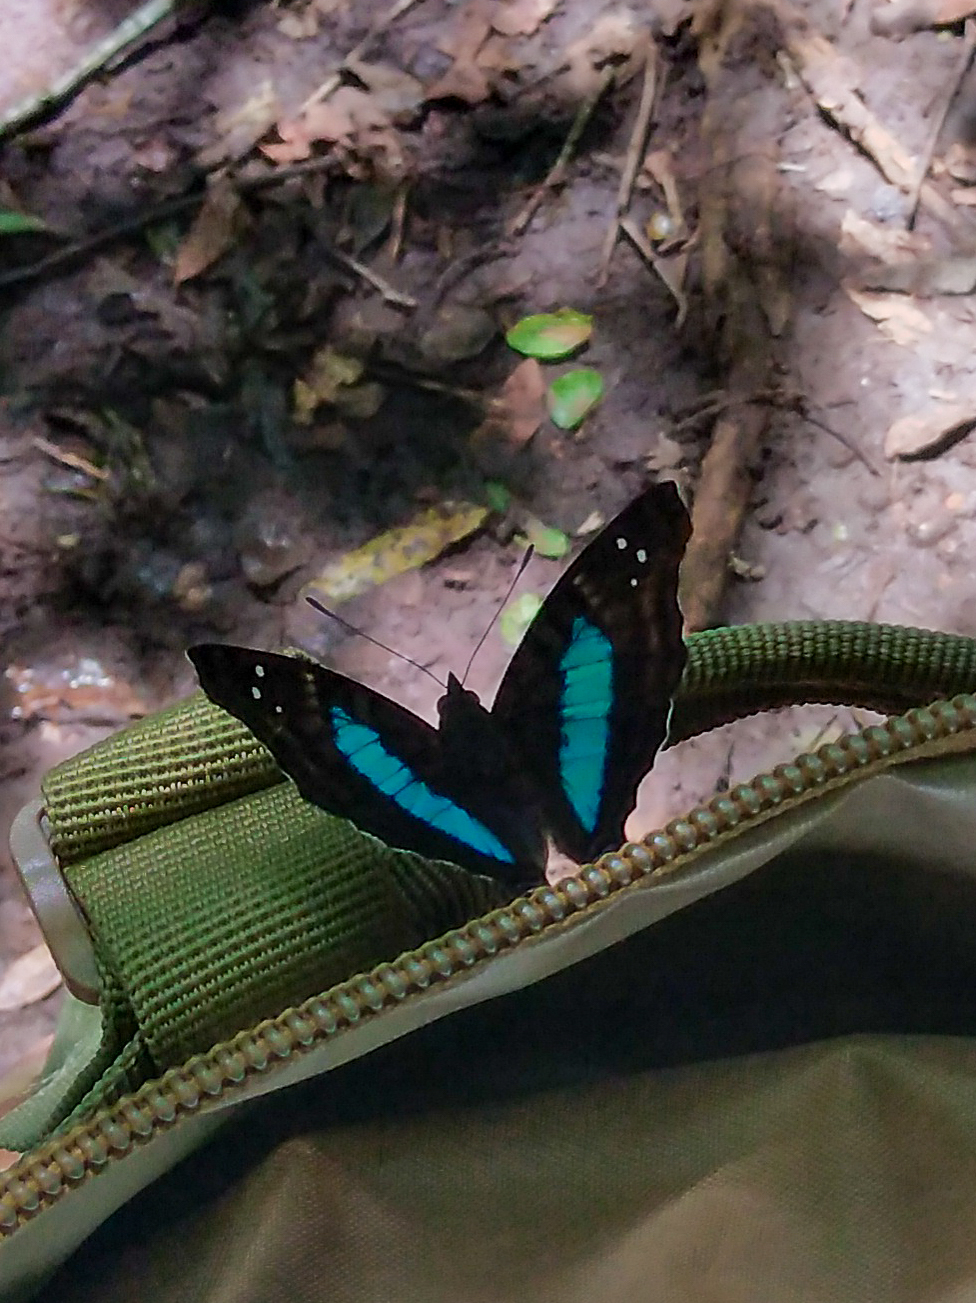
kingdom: Animalia
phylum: Arthropoda
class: Insecta
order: Lepidoptera
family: Nymphalidae
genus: Doxocopa
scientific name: Doxocopa laurentia
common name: Turquoise emperor
